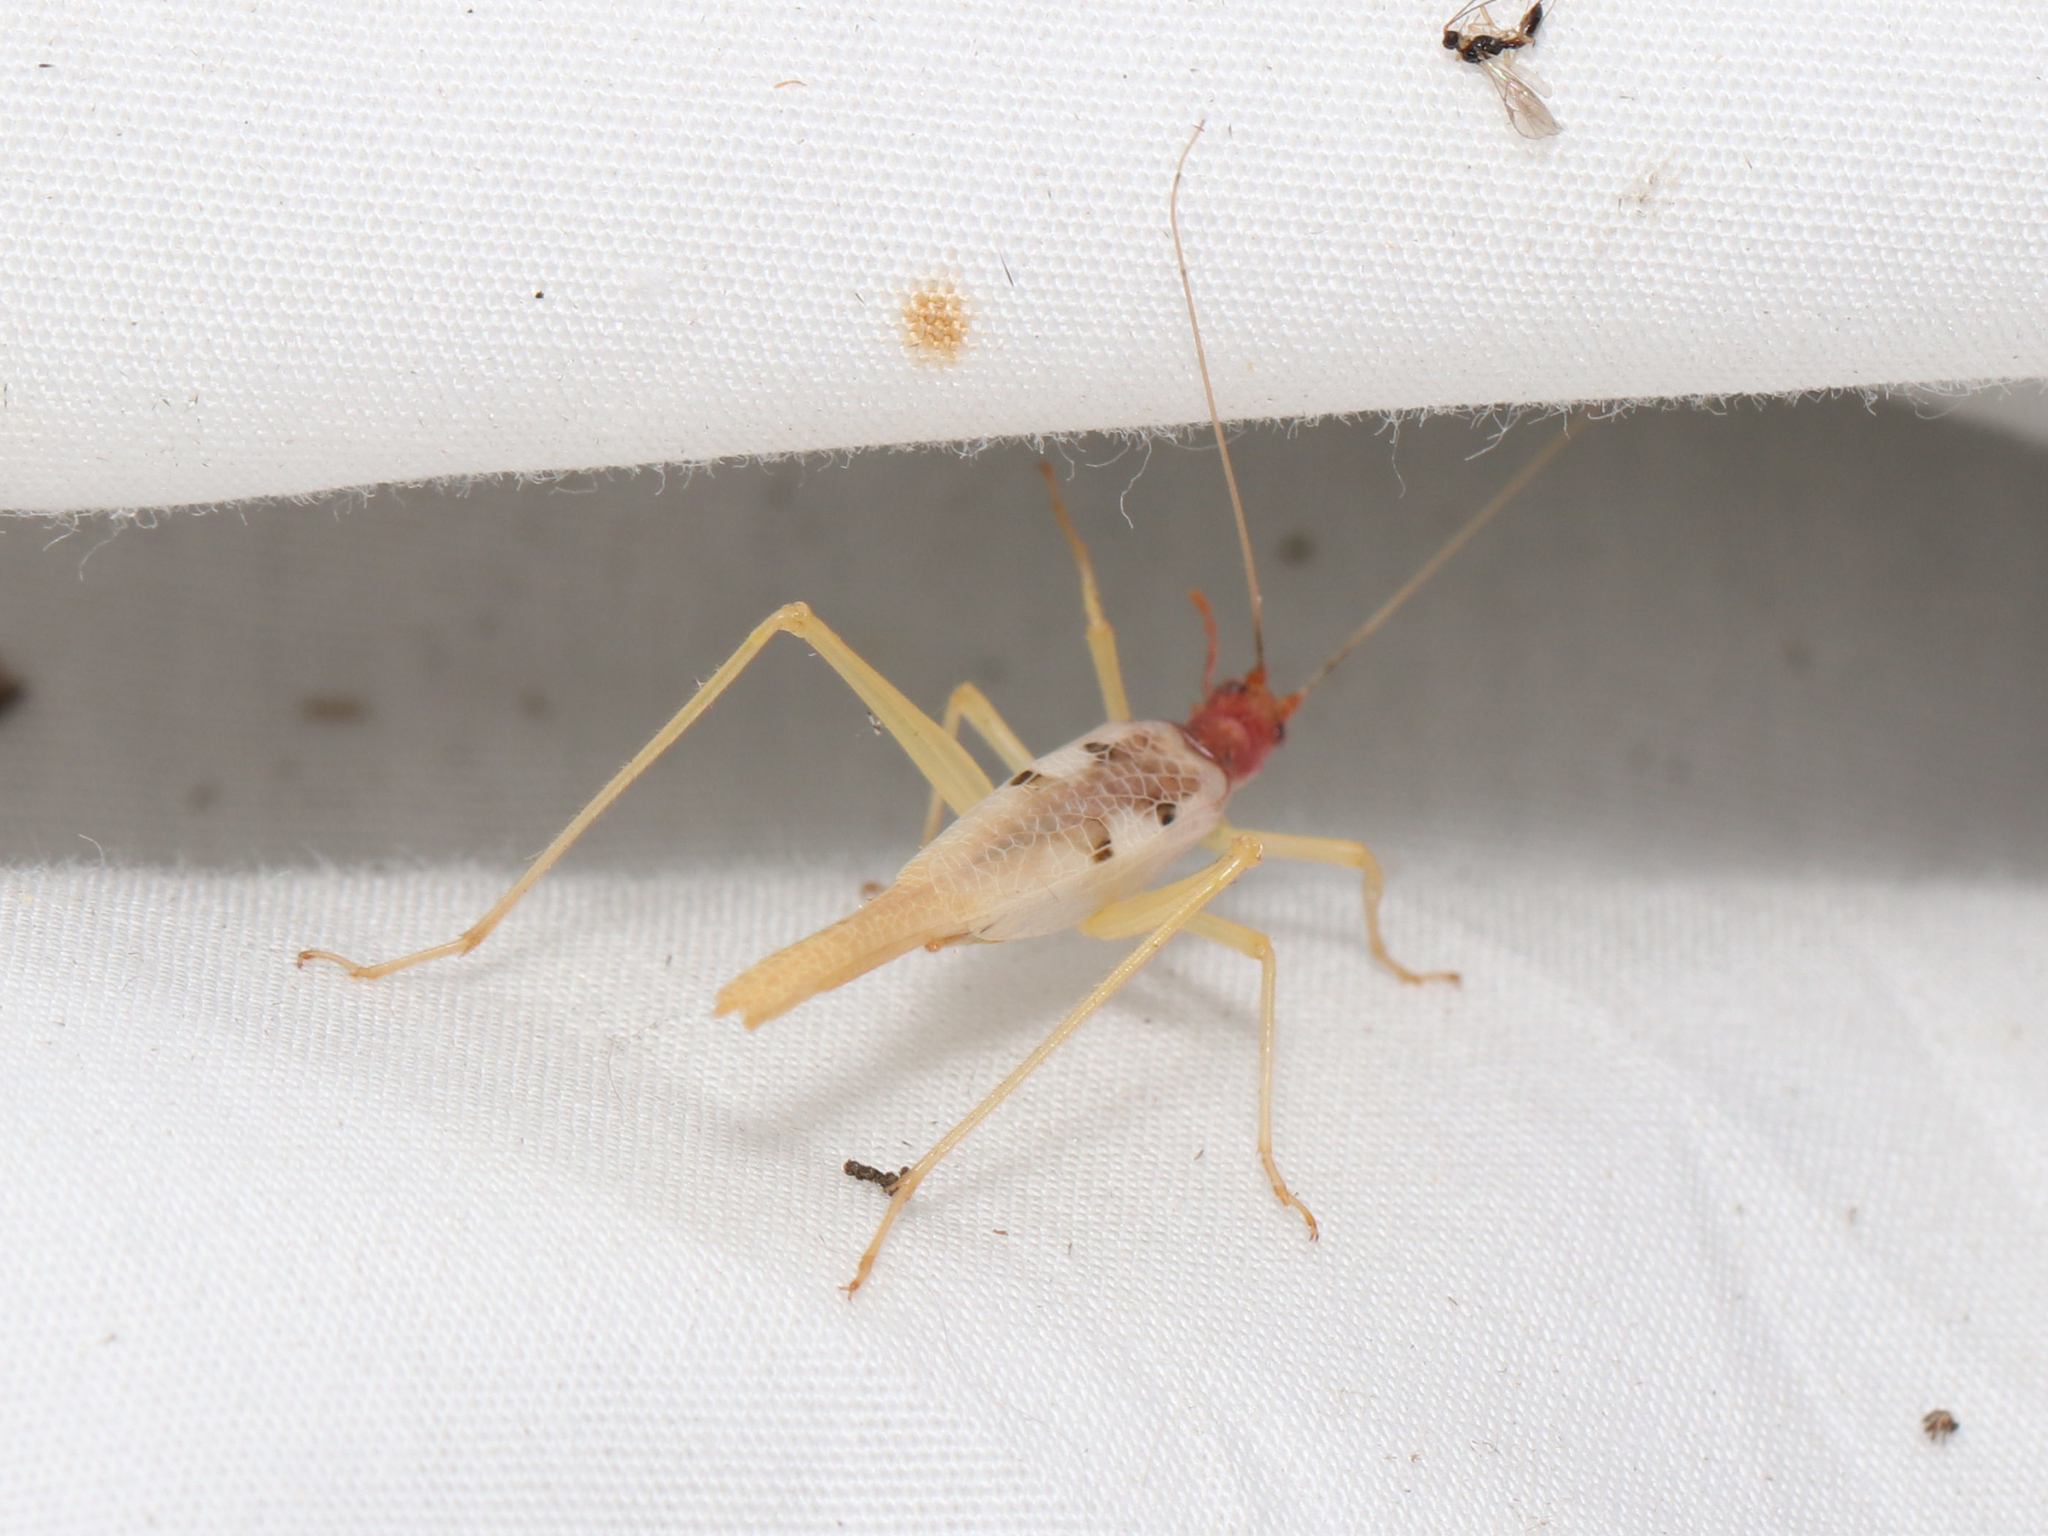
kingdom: Animalia
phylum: Arthropoda
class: Insecta
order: Orthoptera
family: Gryllidae
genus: Neoxabea
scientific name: Neoxabea bipunctata
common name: Two-spotted tree cricket
